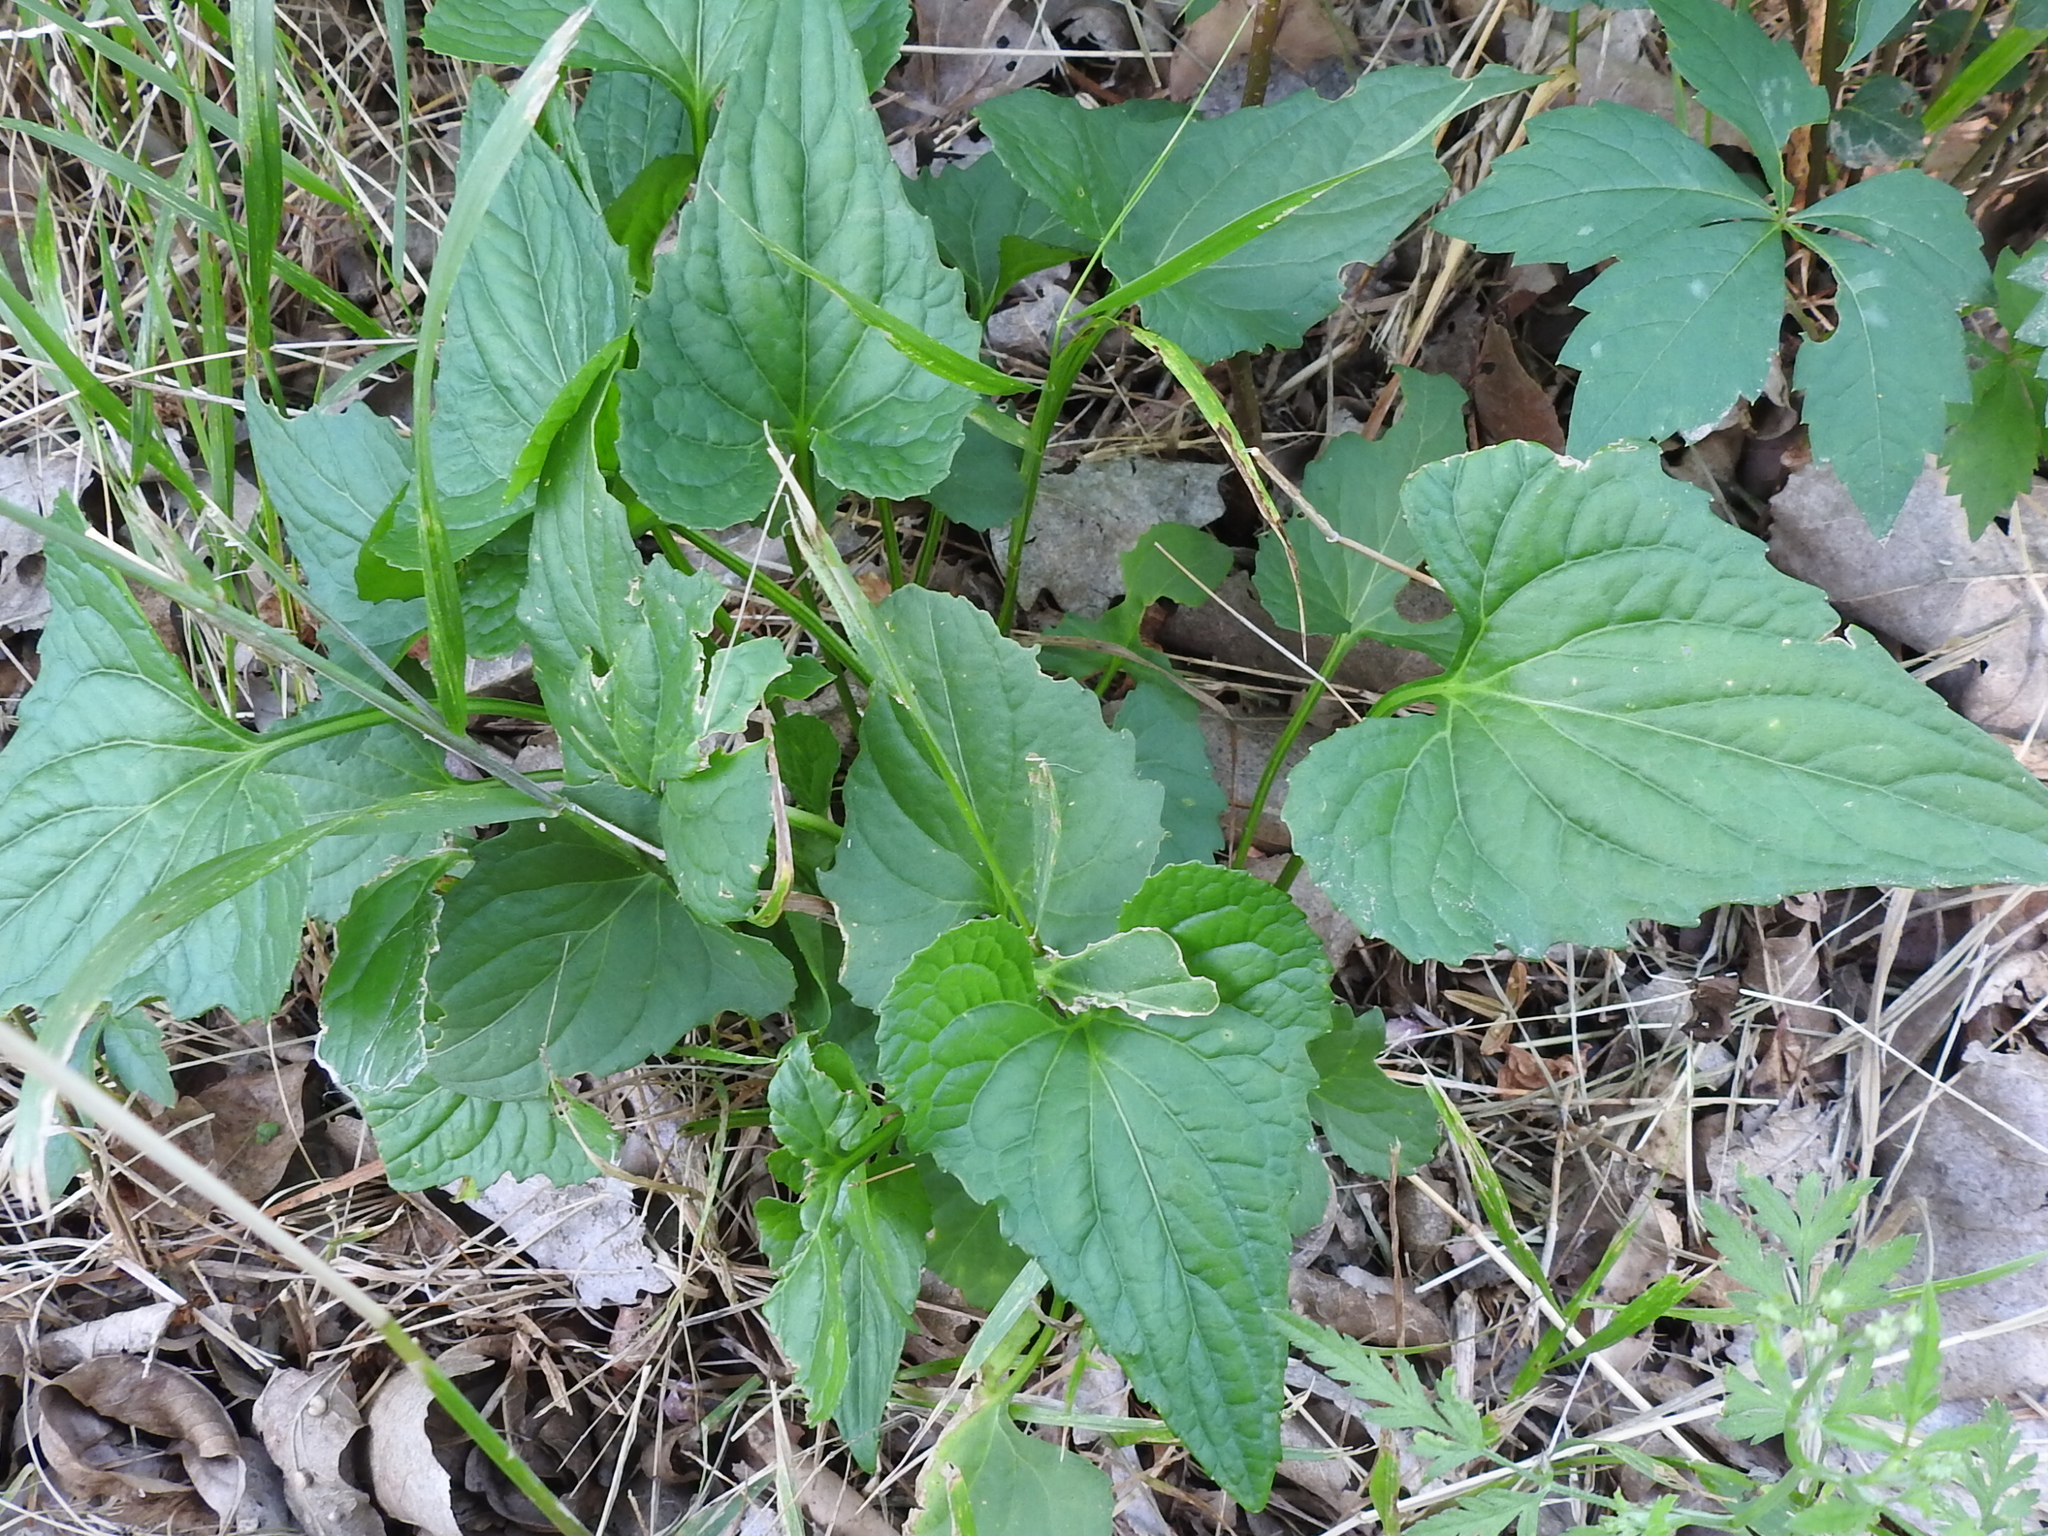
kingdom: Plantae
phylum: Tracheophyta
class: Magnoliopsida
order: Malpighiales
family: Violaceae
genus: Viola
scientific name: Viola missouriensis
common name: Missouri violet
